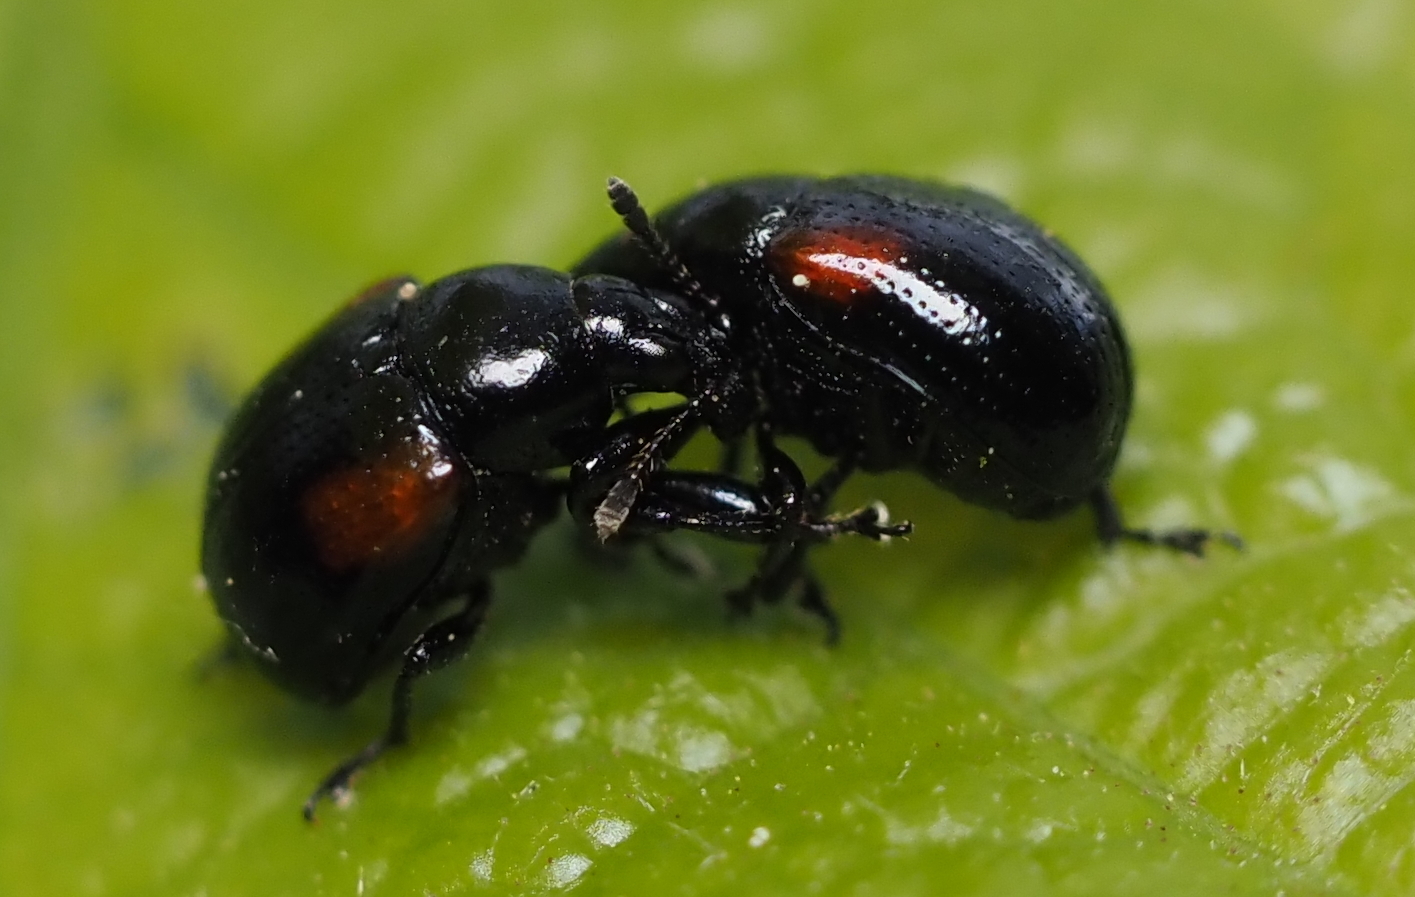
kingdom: Animalia
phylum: Arthropoda
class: Insecta
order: Coleoptera
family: Attelabidae
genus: Attelabus
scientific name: Attelabus bipustulatus
